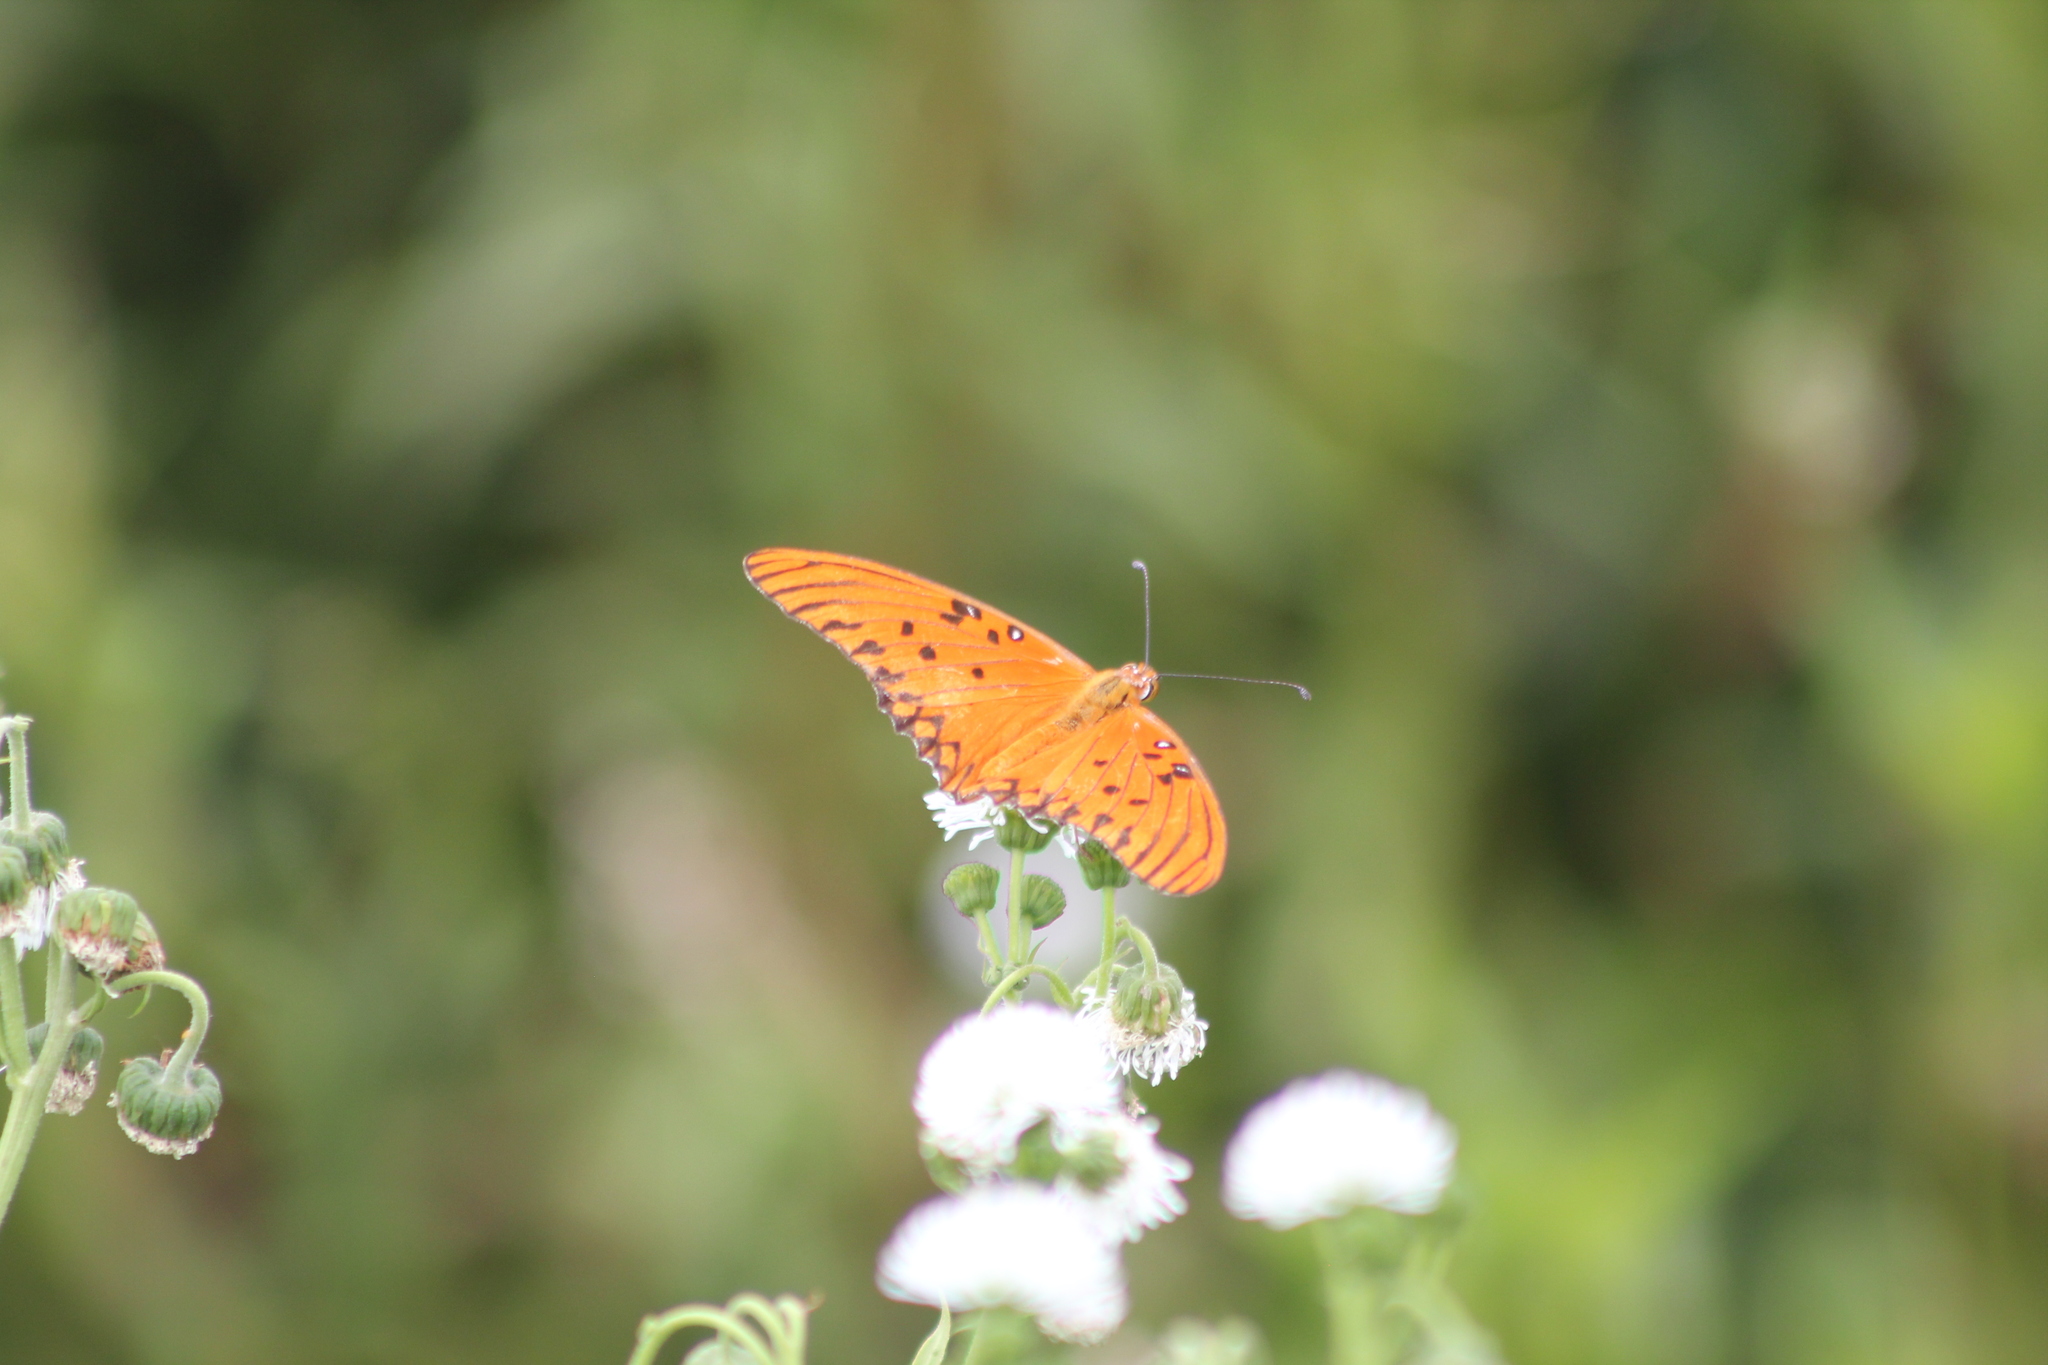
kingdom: Animalia
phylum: Arthropoda
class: Insecta
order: Lepidoptera
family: Nymphalidae
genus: Dione
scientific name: Dione vanillae
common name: Gulf fritillary
